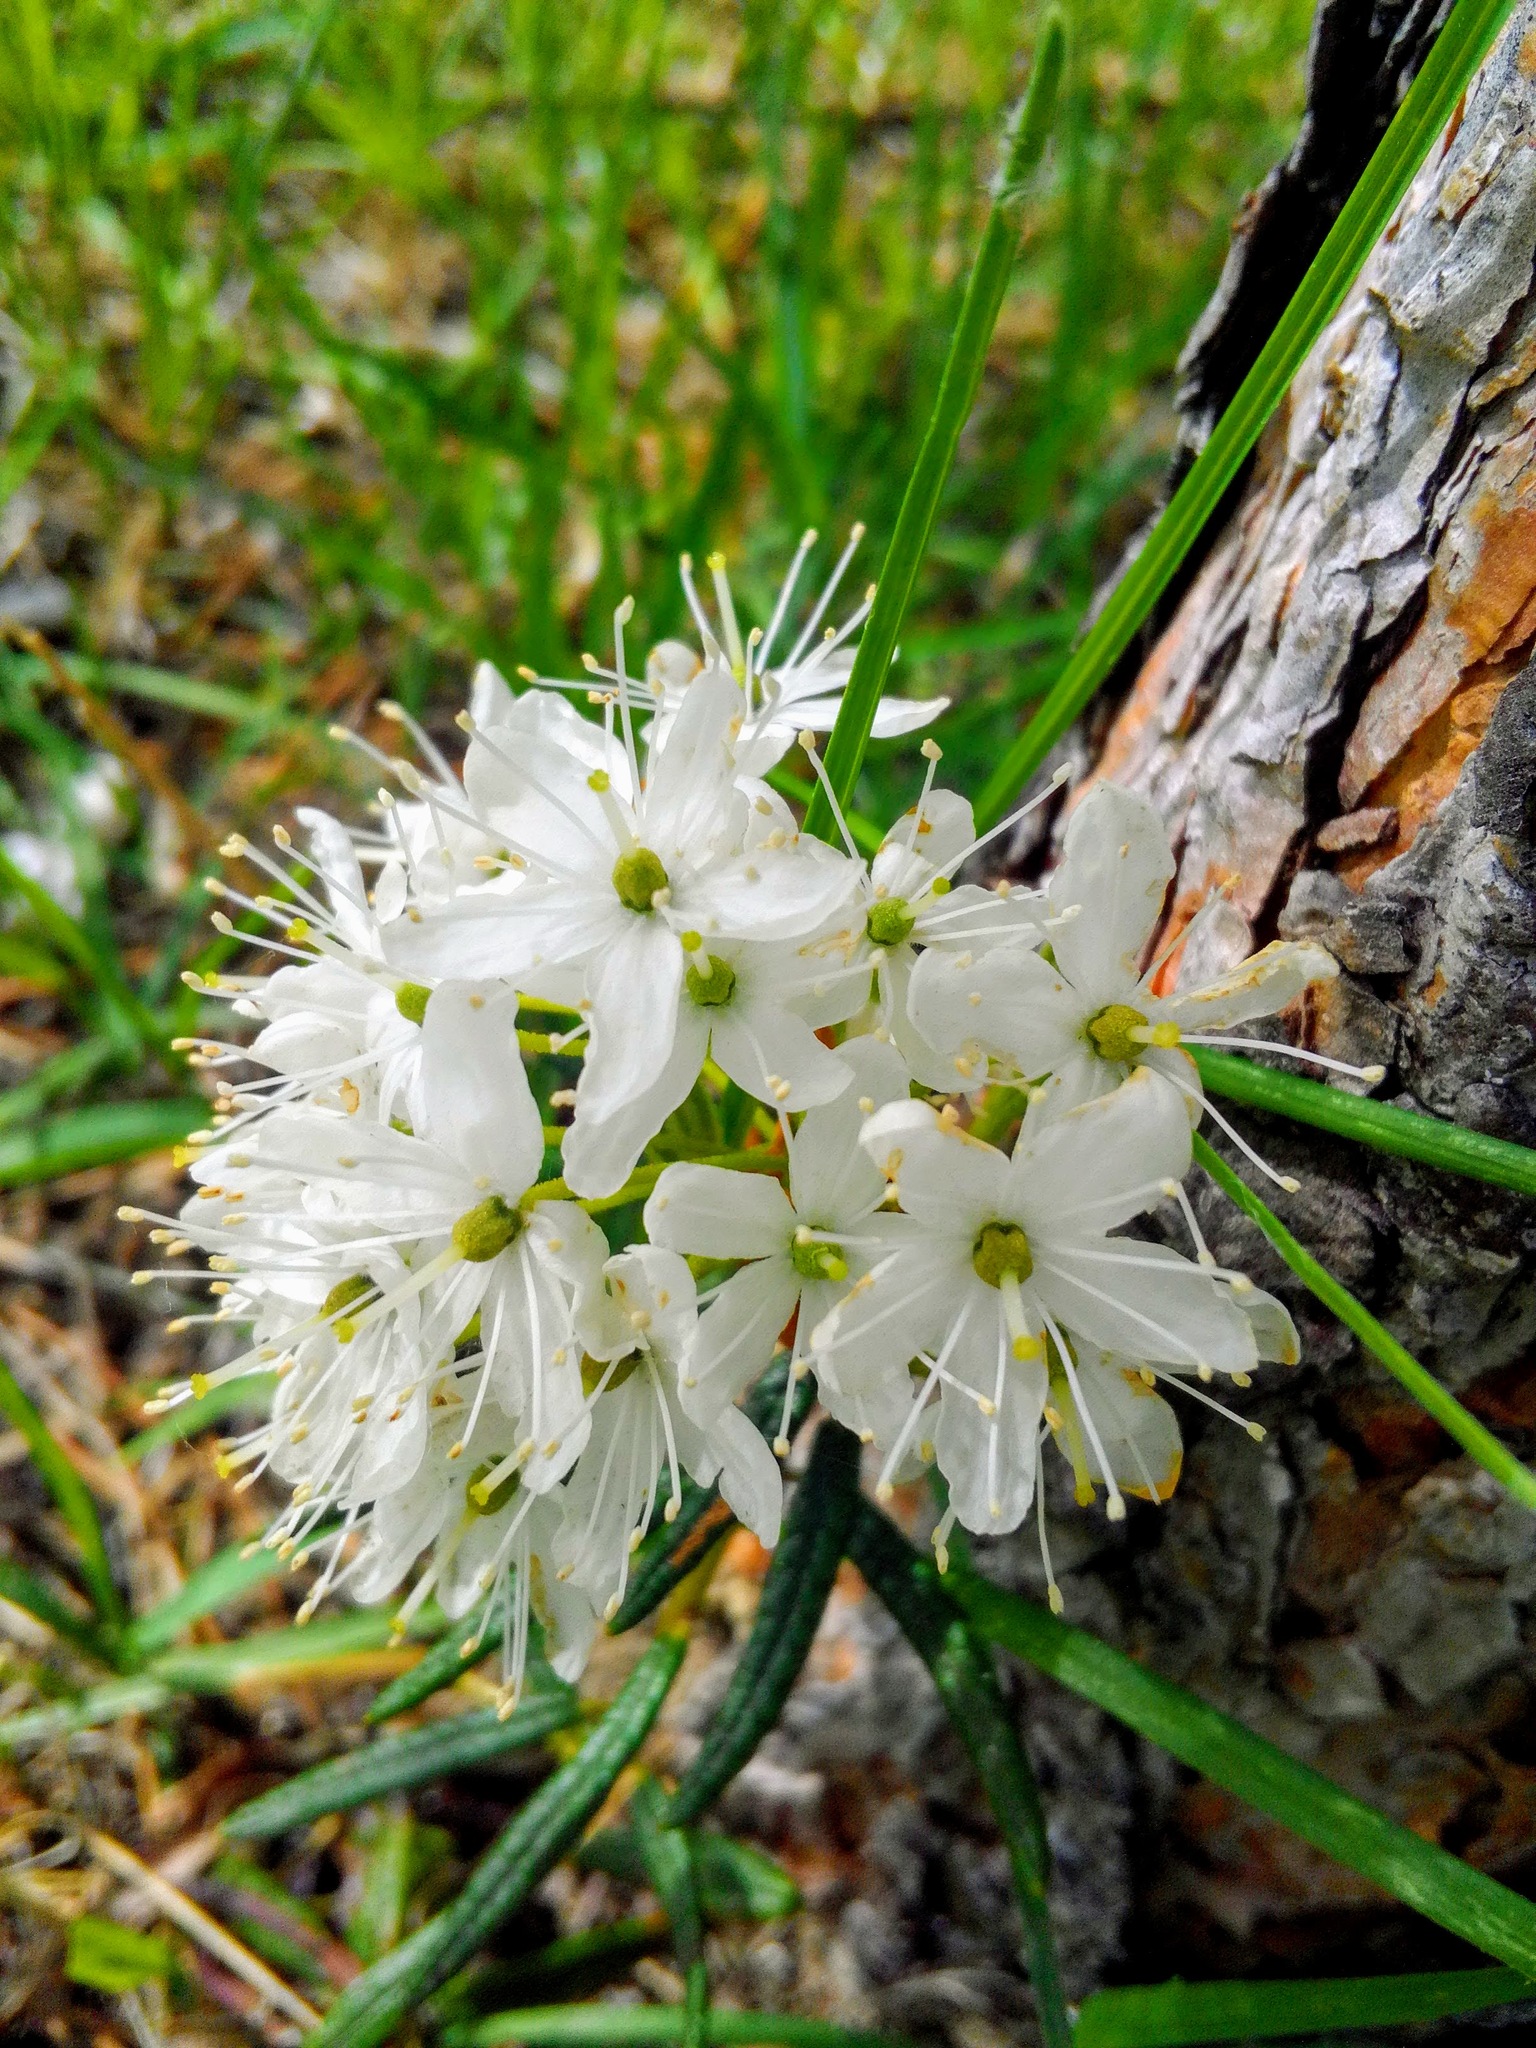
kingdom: Plantae
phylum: Tracheophyta
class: Magnoliopsida
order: Ericales
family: Ericaceae
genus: Rhododendron
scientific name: Rhododendron tomentosum
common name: Marsh labrador tea
